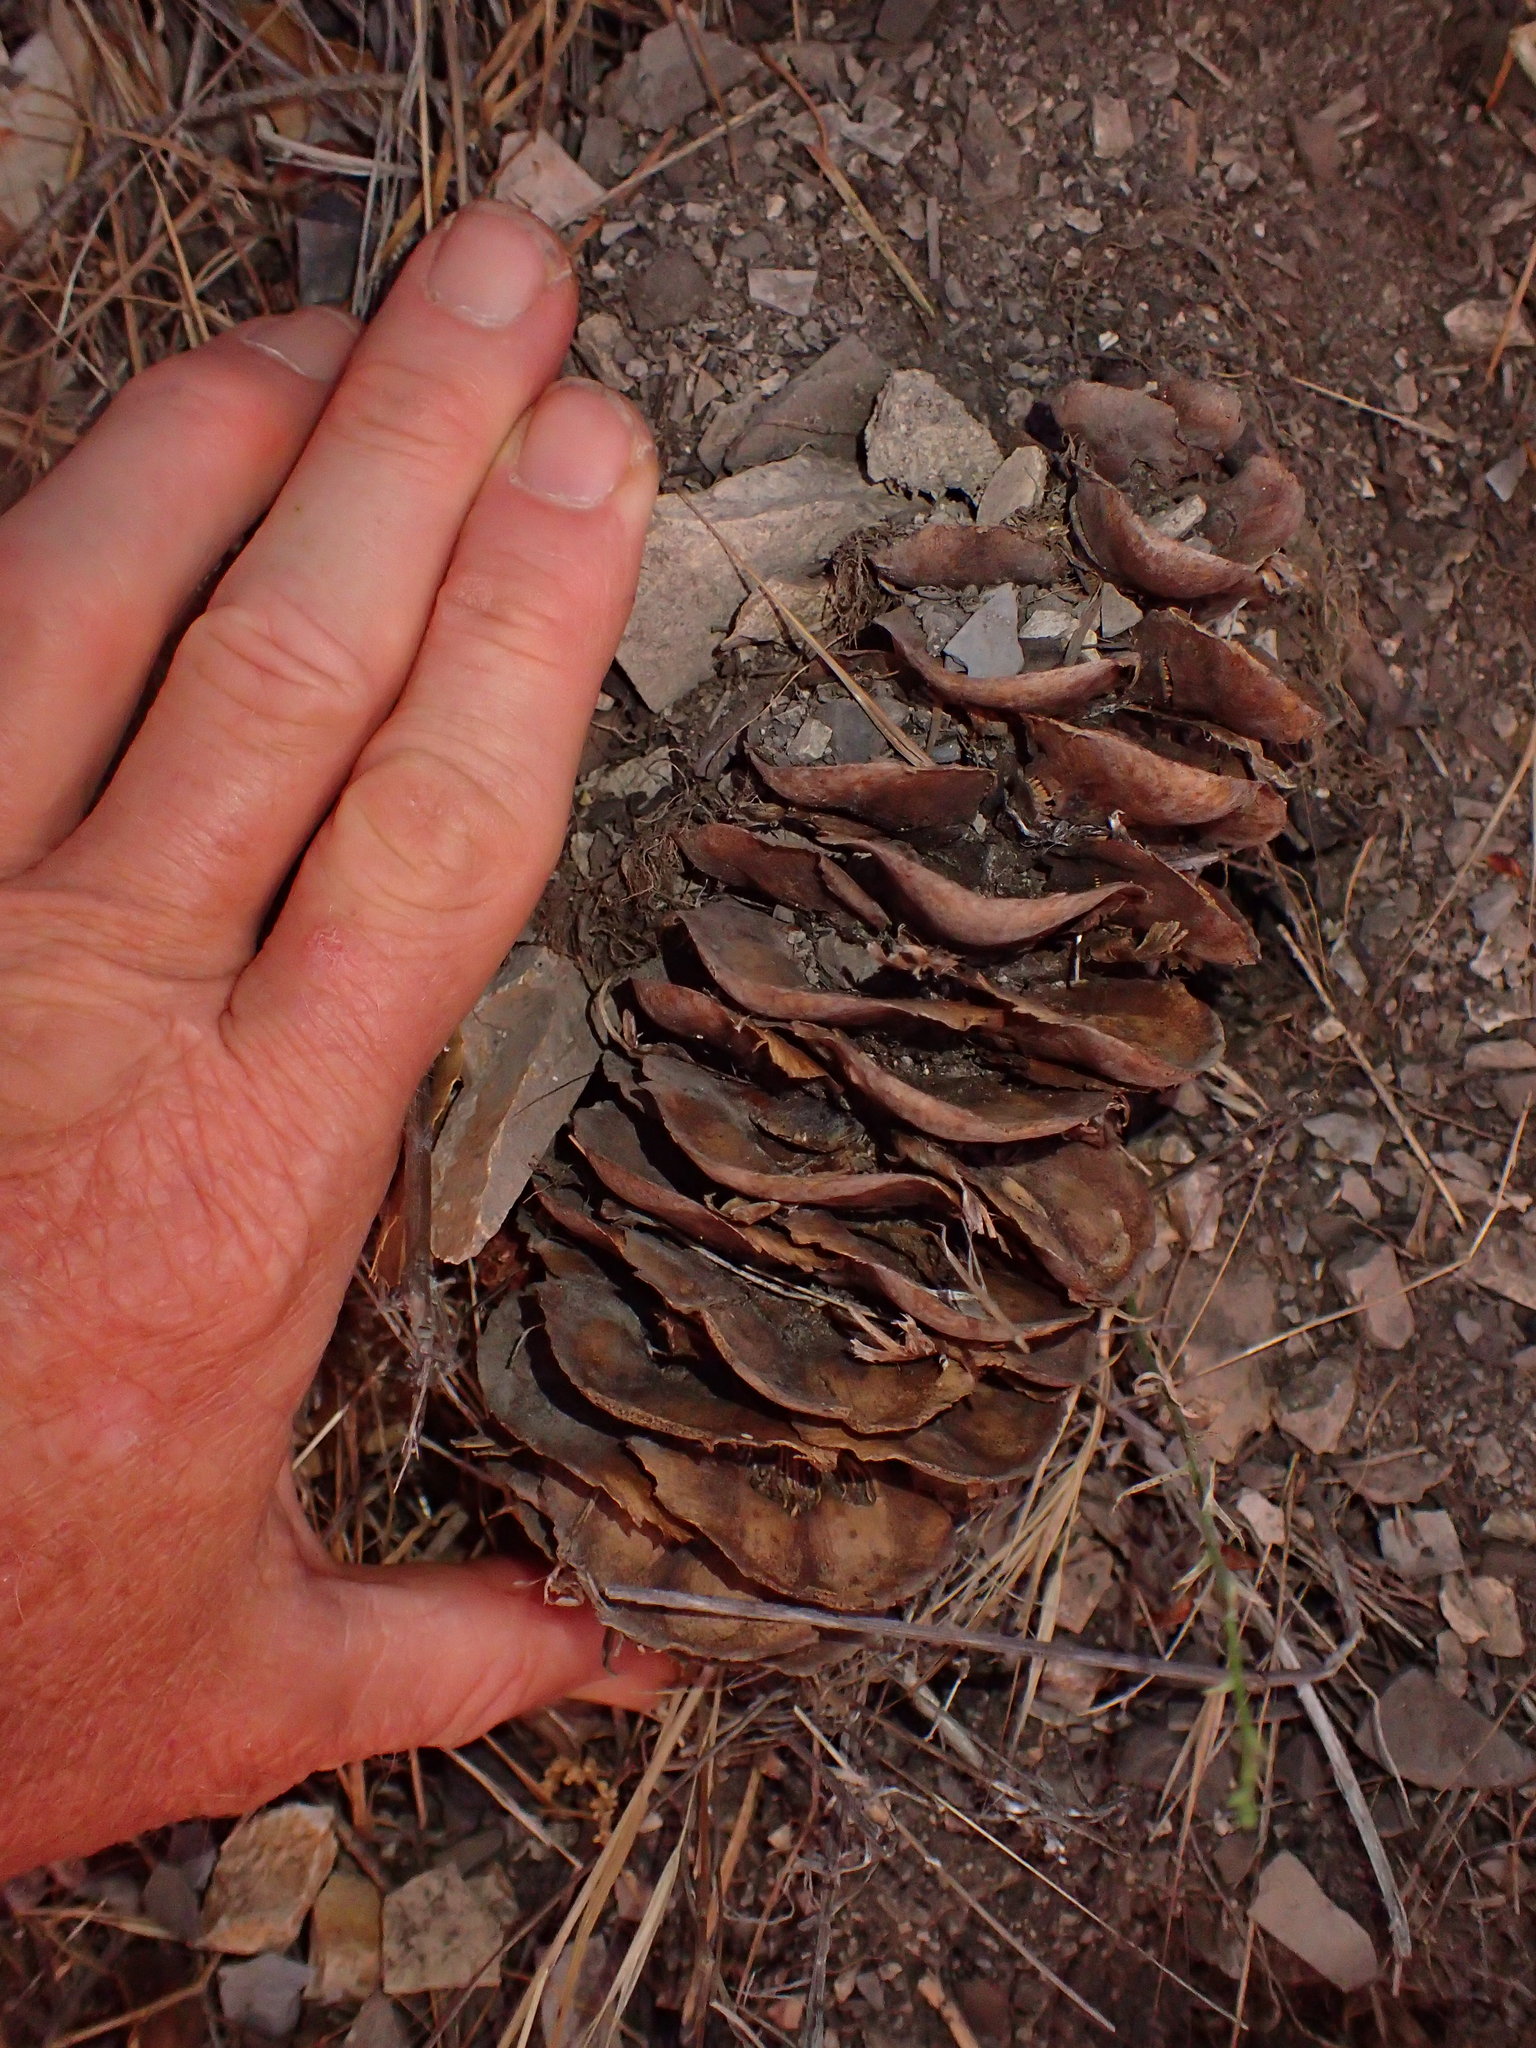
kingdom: Plantae
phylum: Tracheophyta
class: Pinopsida
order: Pinales
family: Pinaceae
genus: Pseudotsuga
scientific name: Pseudotsuga macrocarpa
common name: Big-cone douglas-fir
